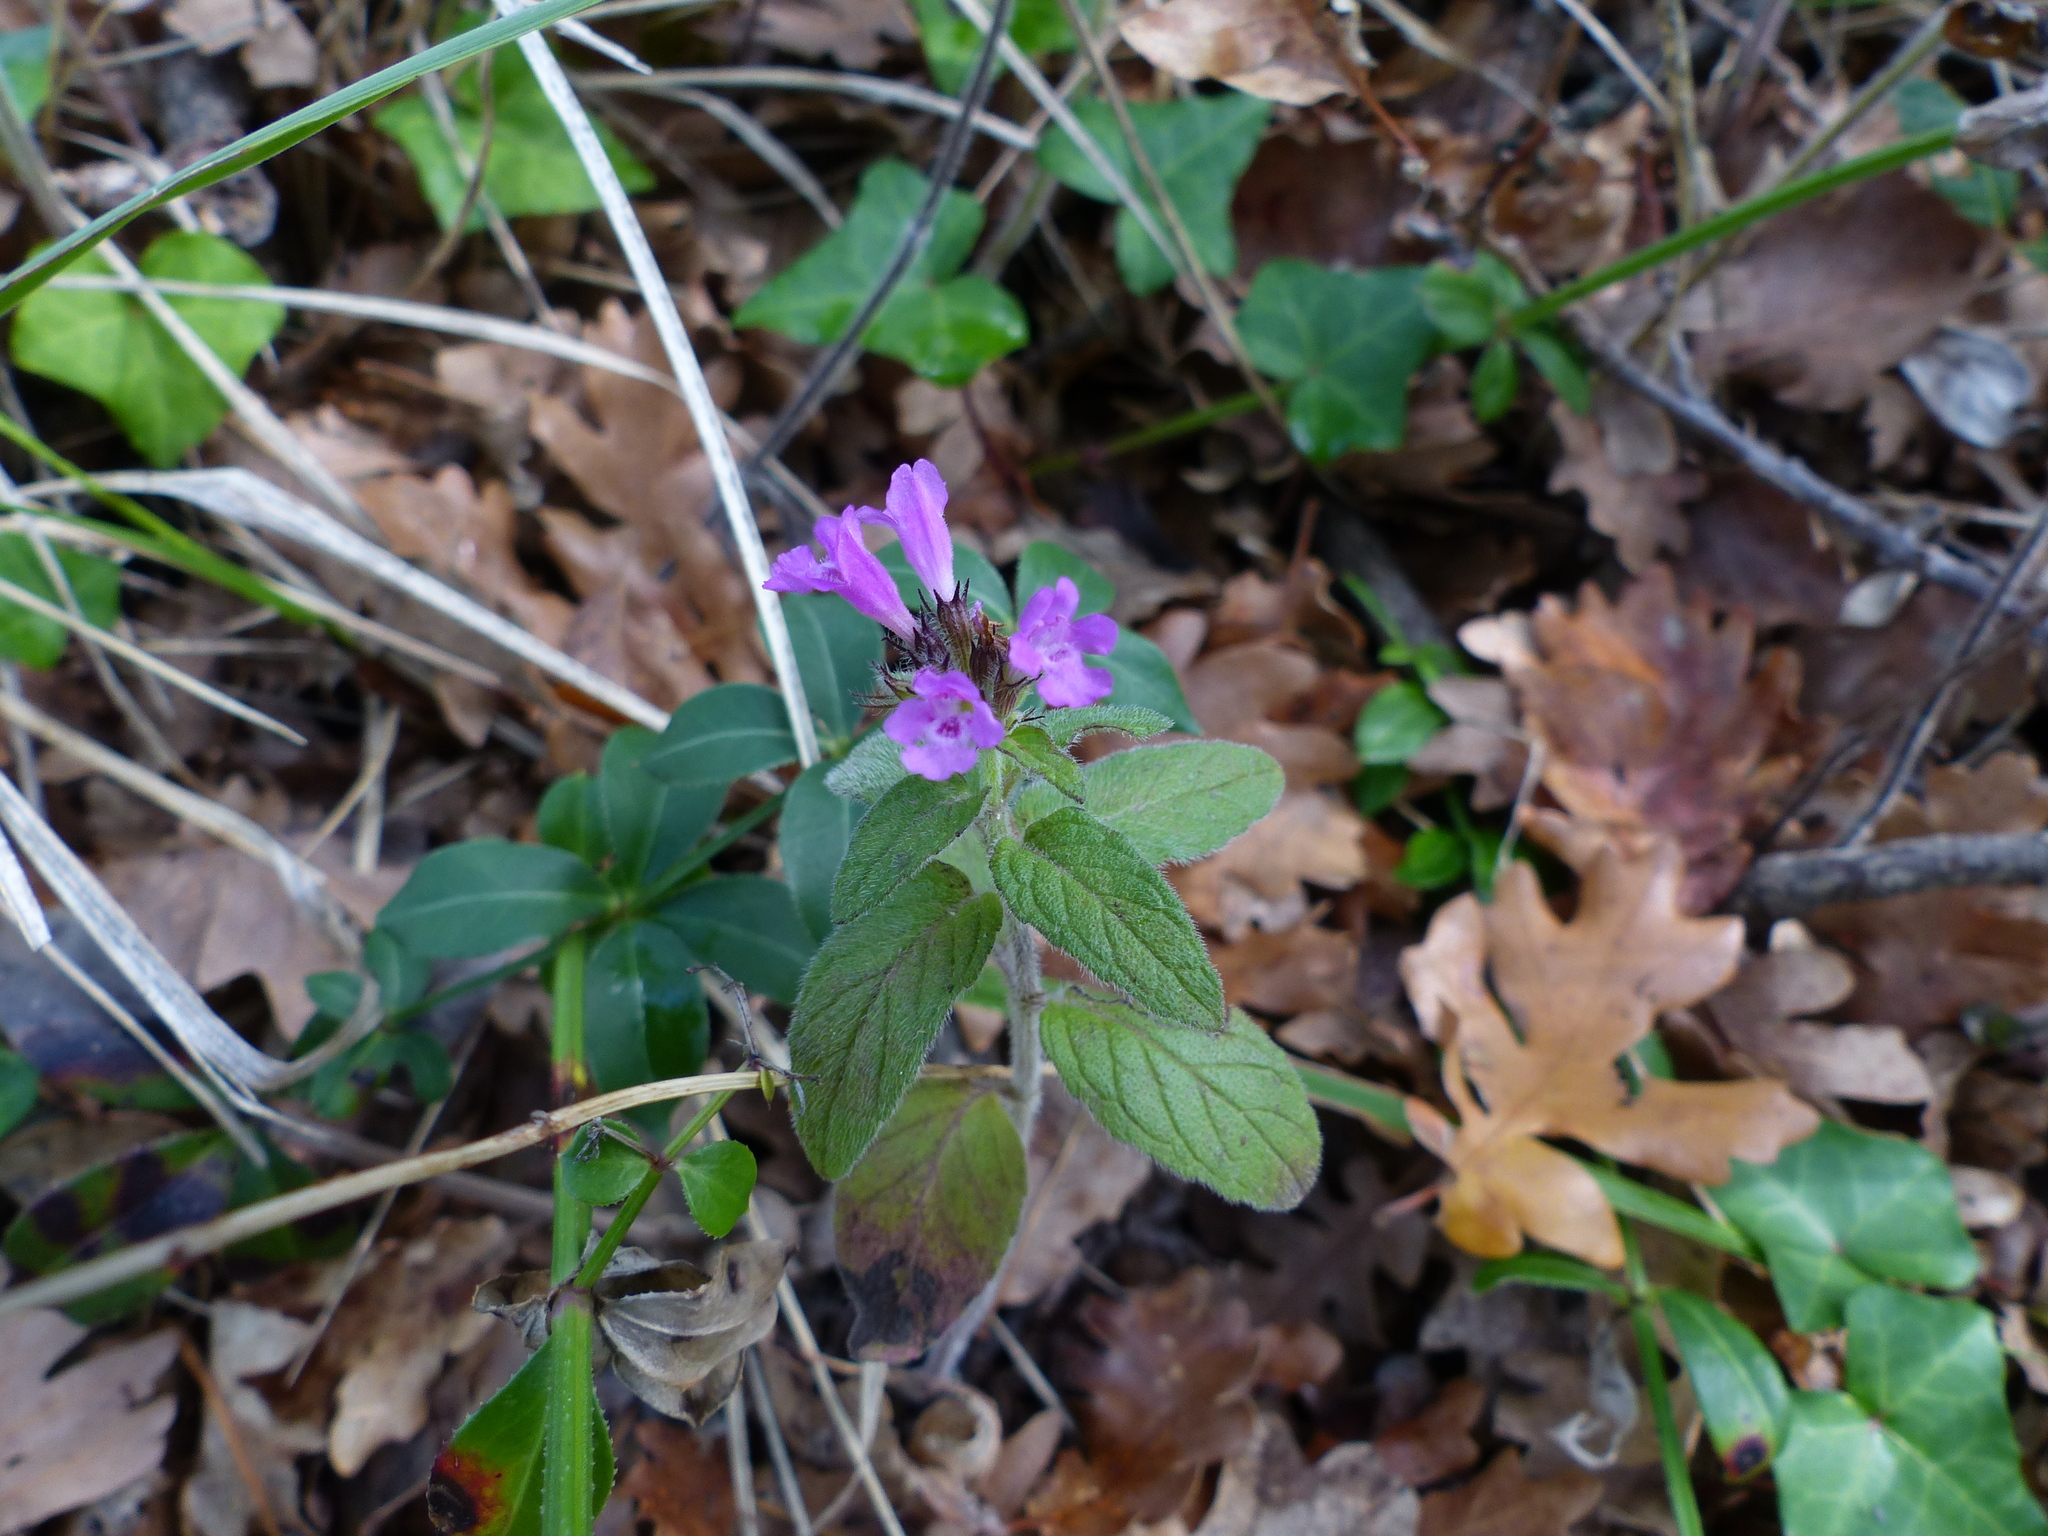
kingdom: Plantae
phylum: Tracheophyta
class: Magnoliopsida
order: Lamiales
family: Lamiaceae
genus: Clinopodium
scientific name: Clinopodium vulgare
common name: Wild basil
